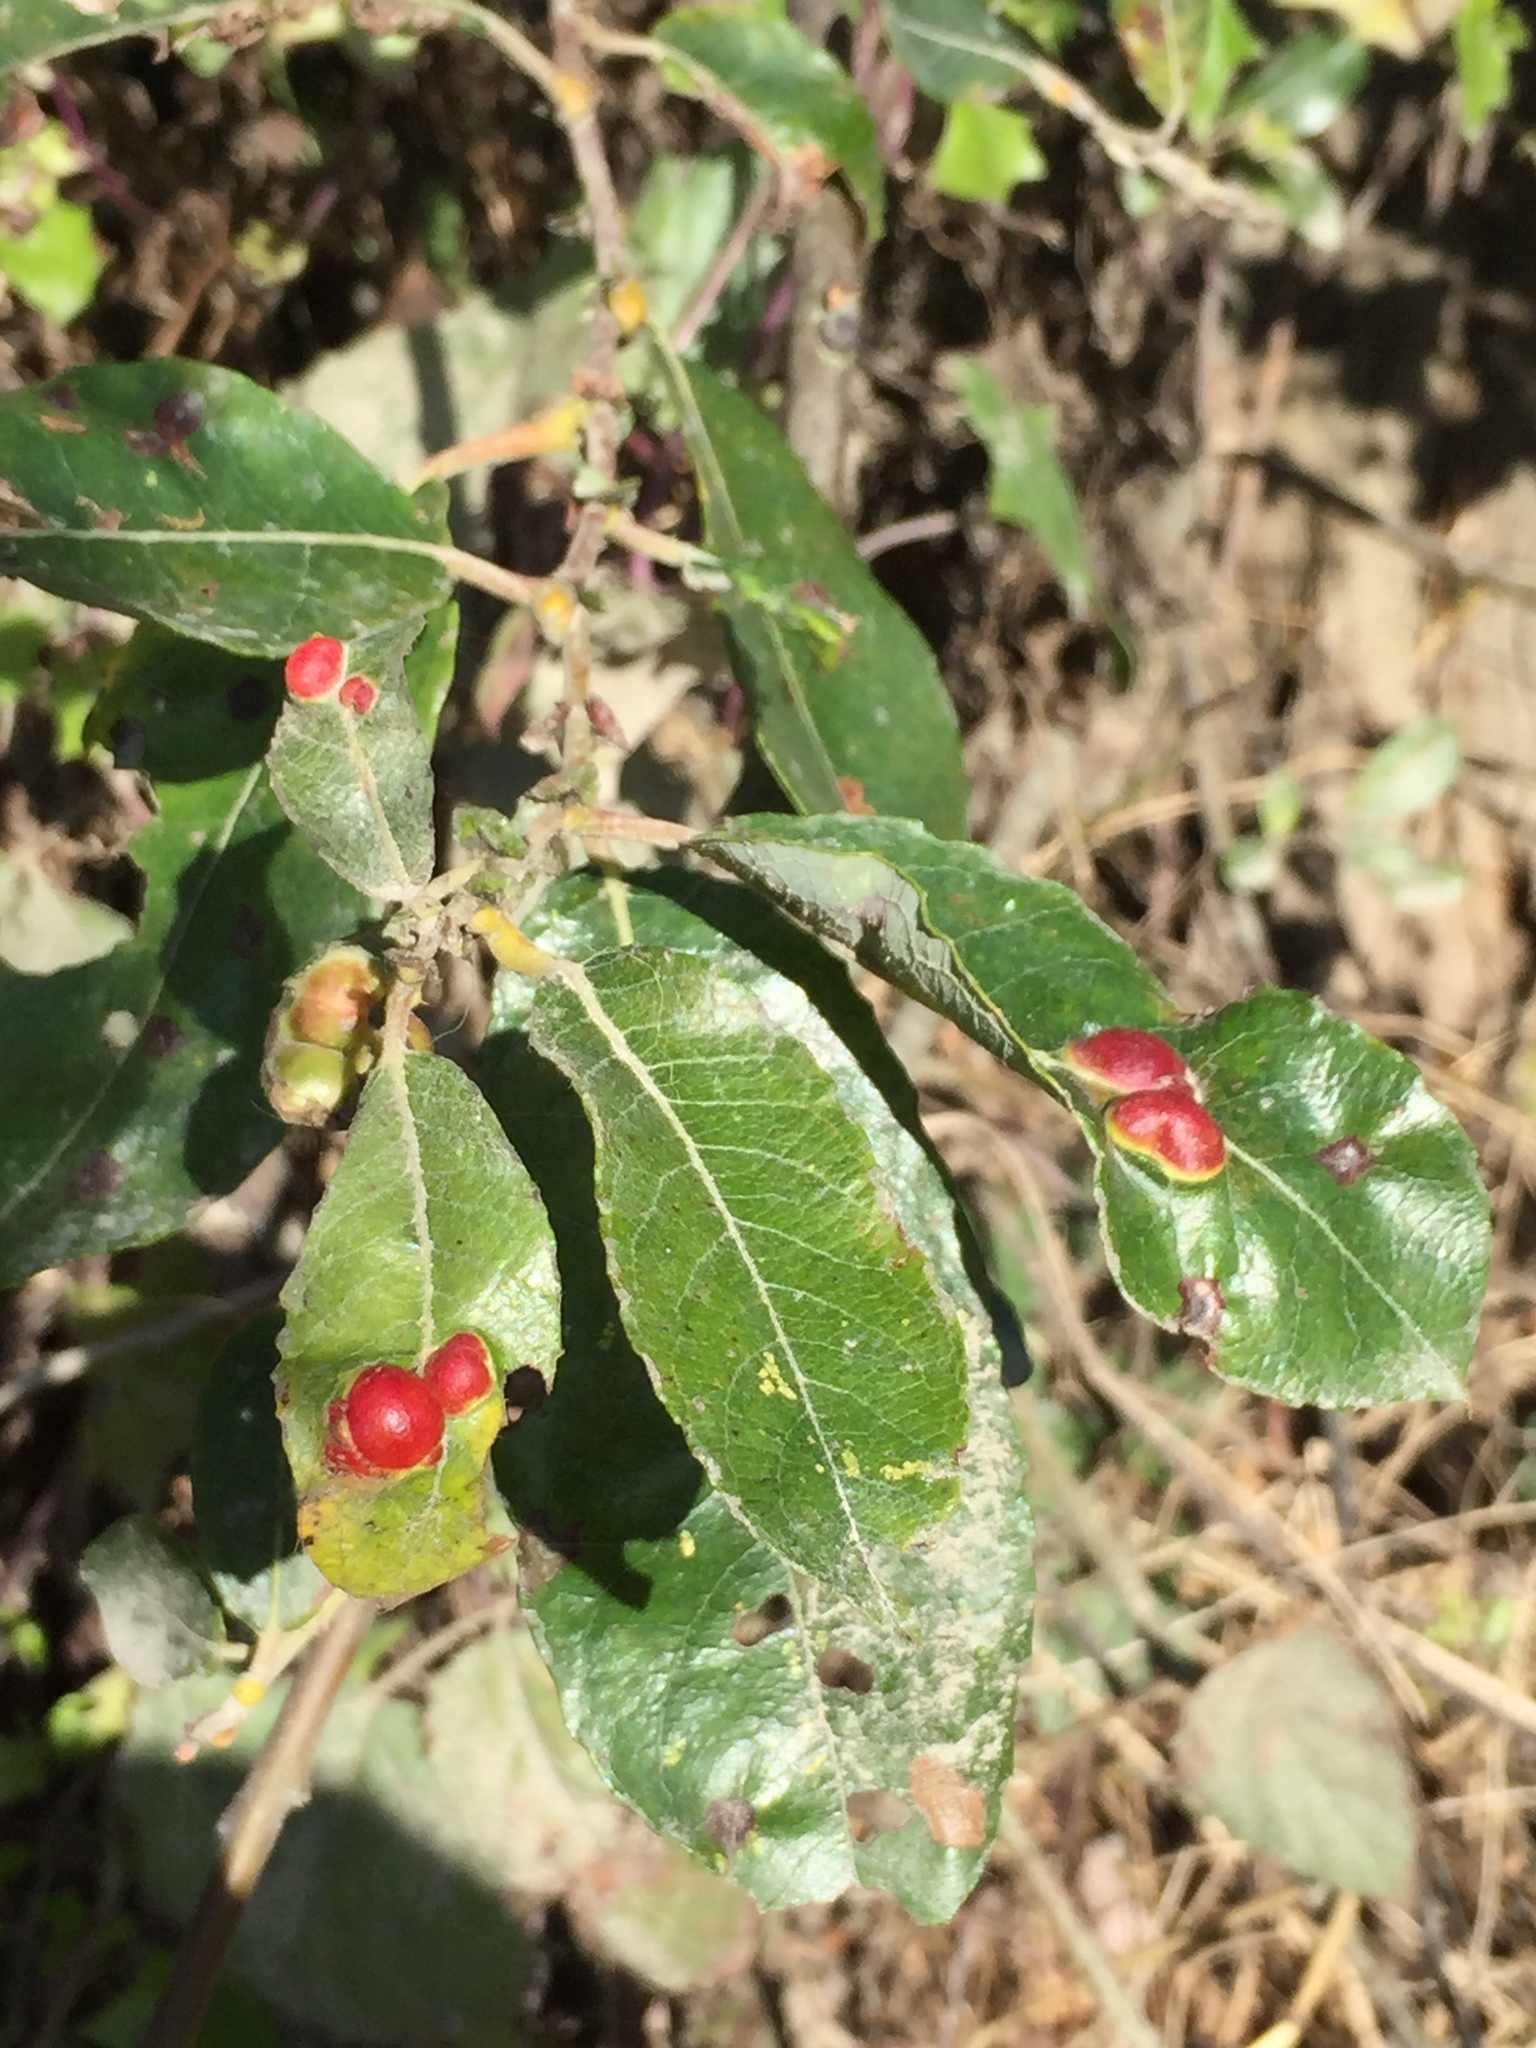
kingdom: Animalia
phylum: Arthropoda
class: Insecta
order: Hymenoptera
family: Tenthredinidae
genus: Euura
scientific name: Euura
